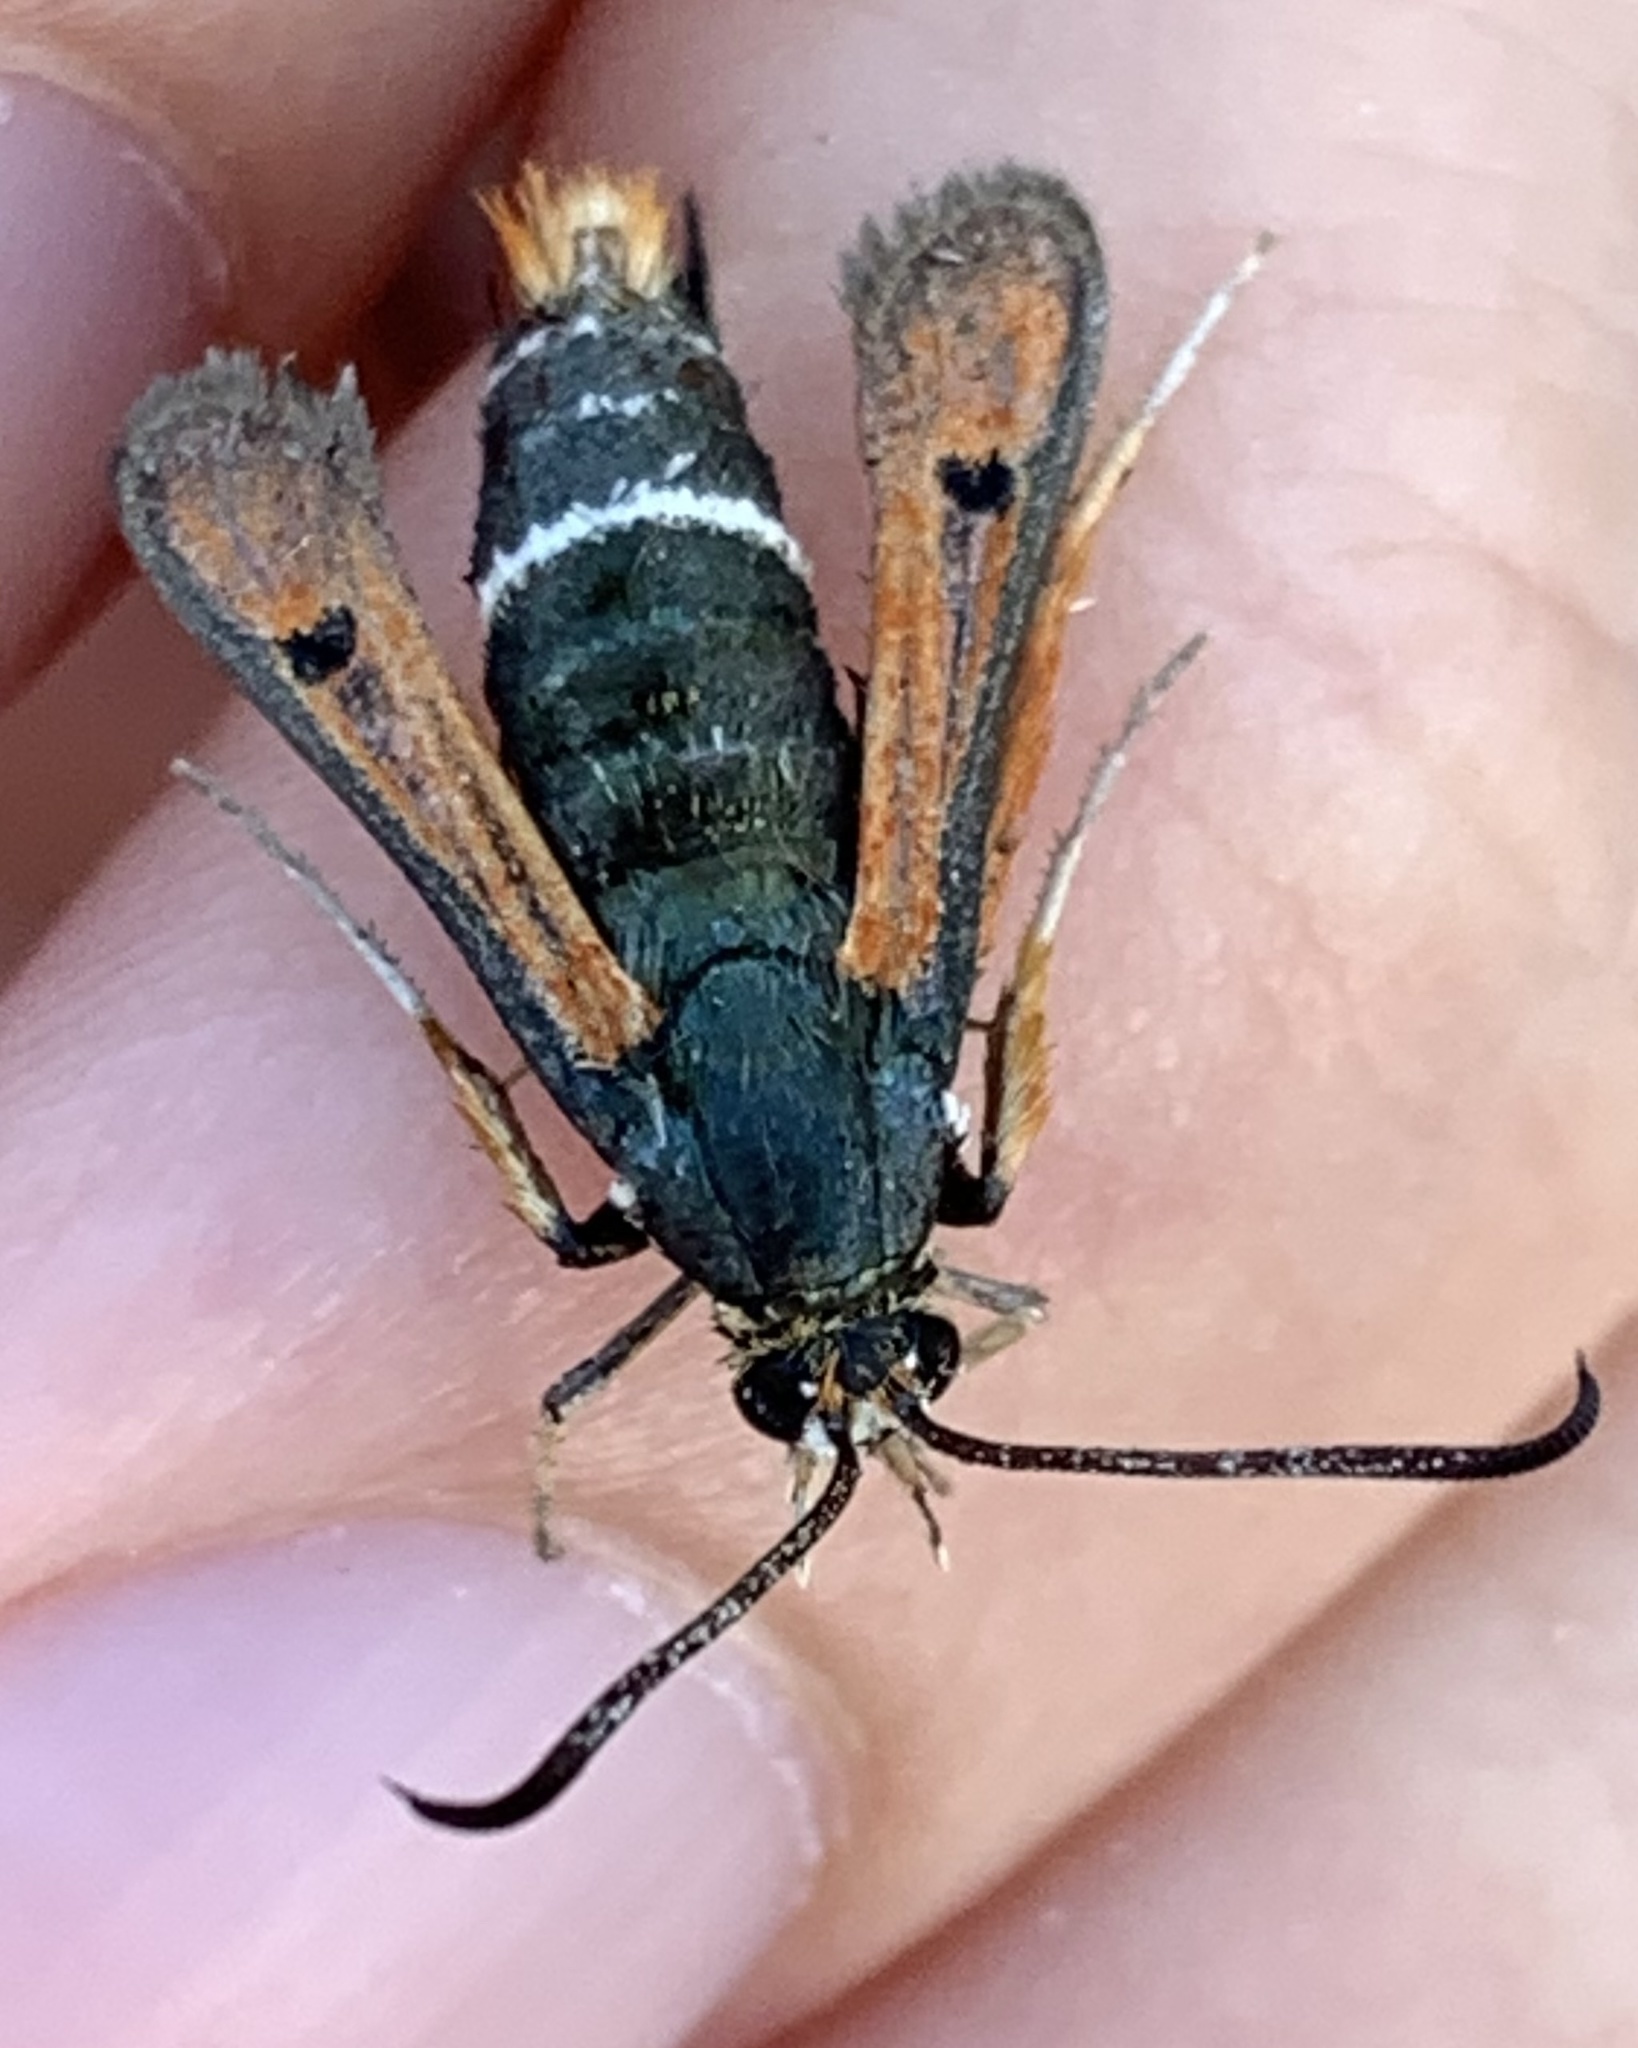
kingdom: Animalia
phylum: Arthropoda
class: Insecta
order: Lepidoptera
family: Sesiidae
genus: Pyropteron
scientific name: Pyropteron chrysidiforme
